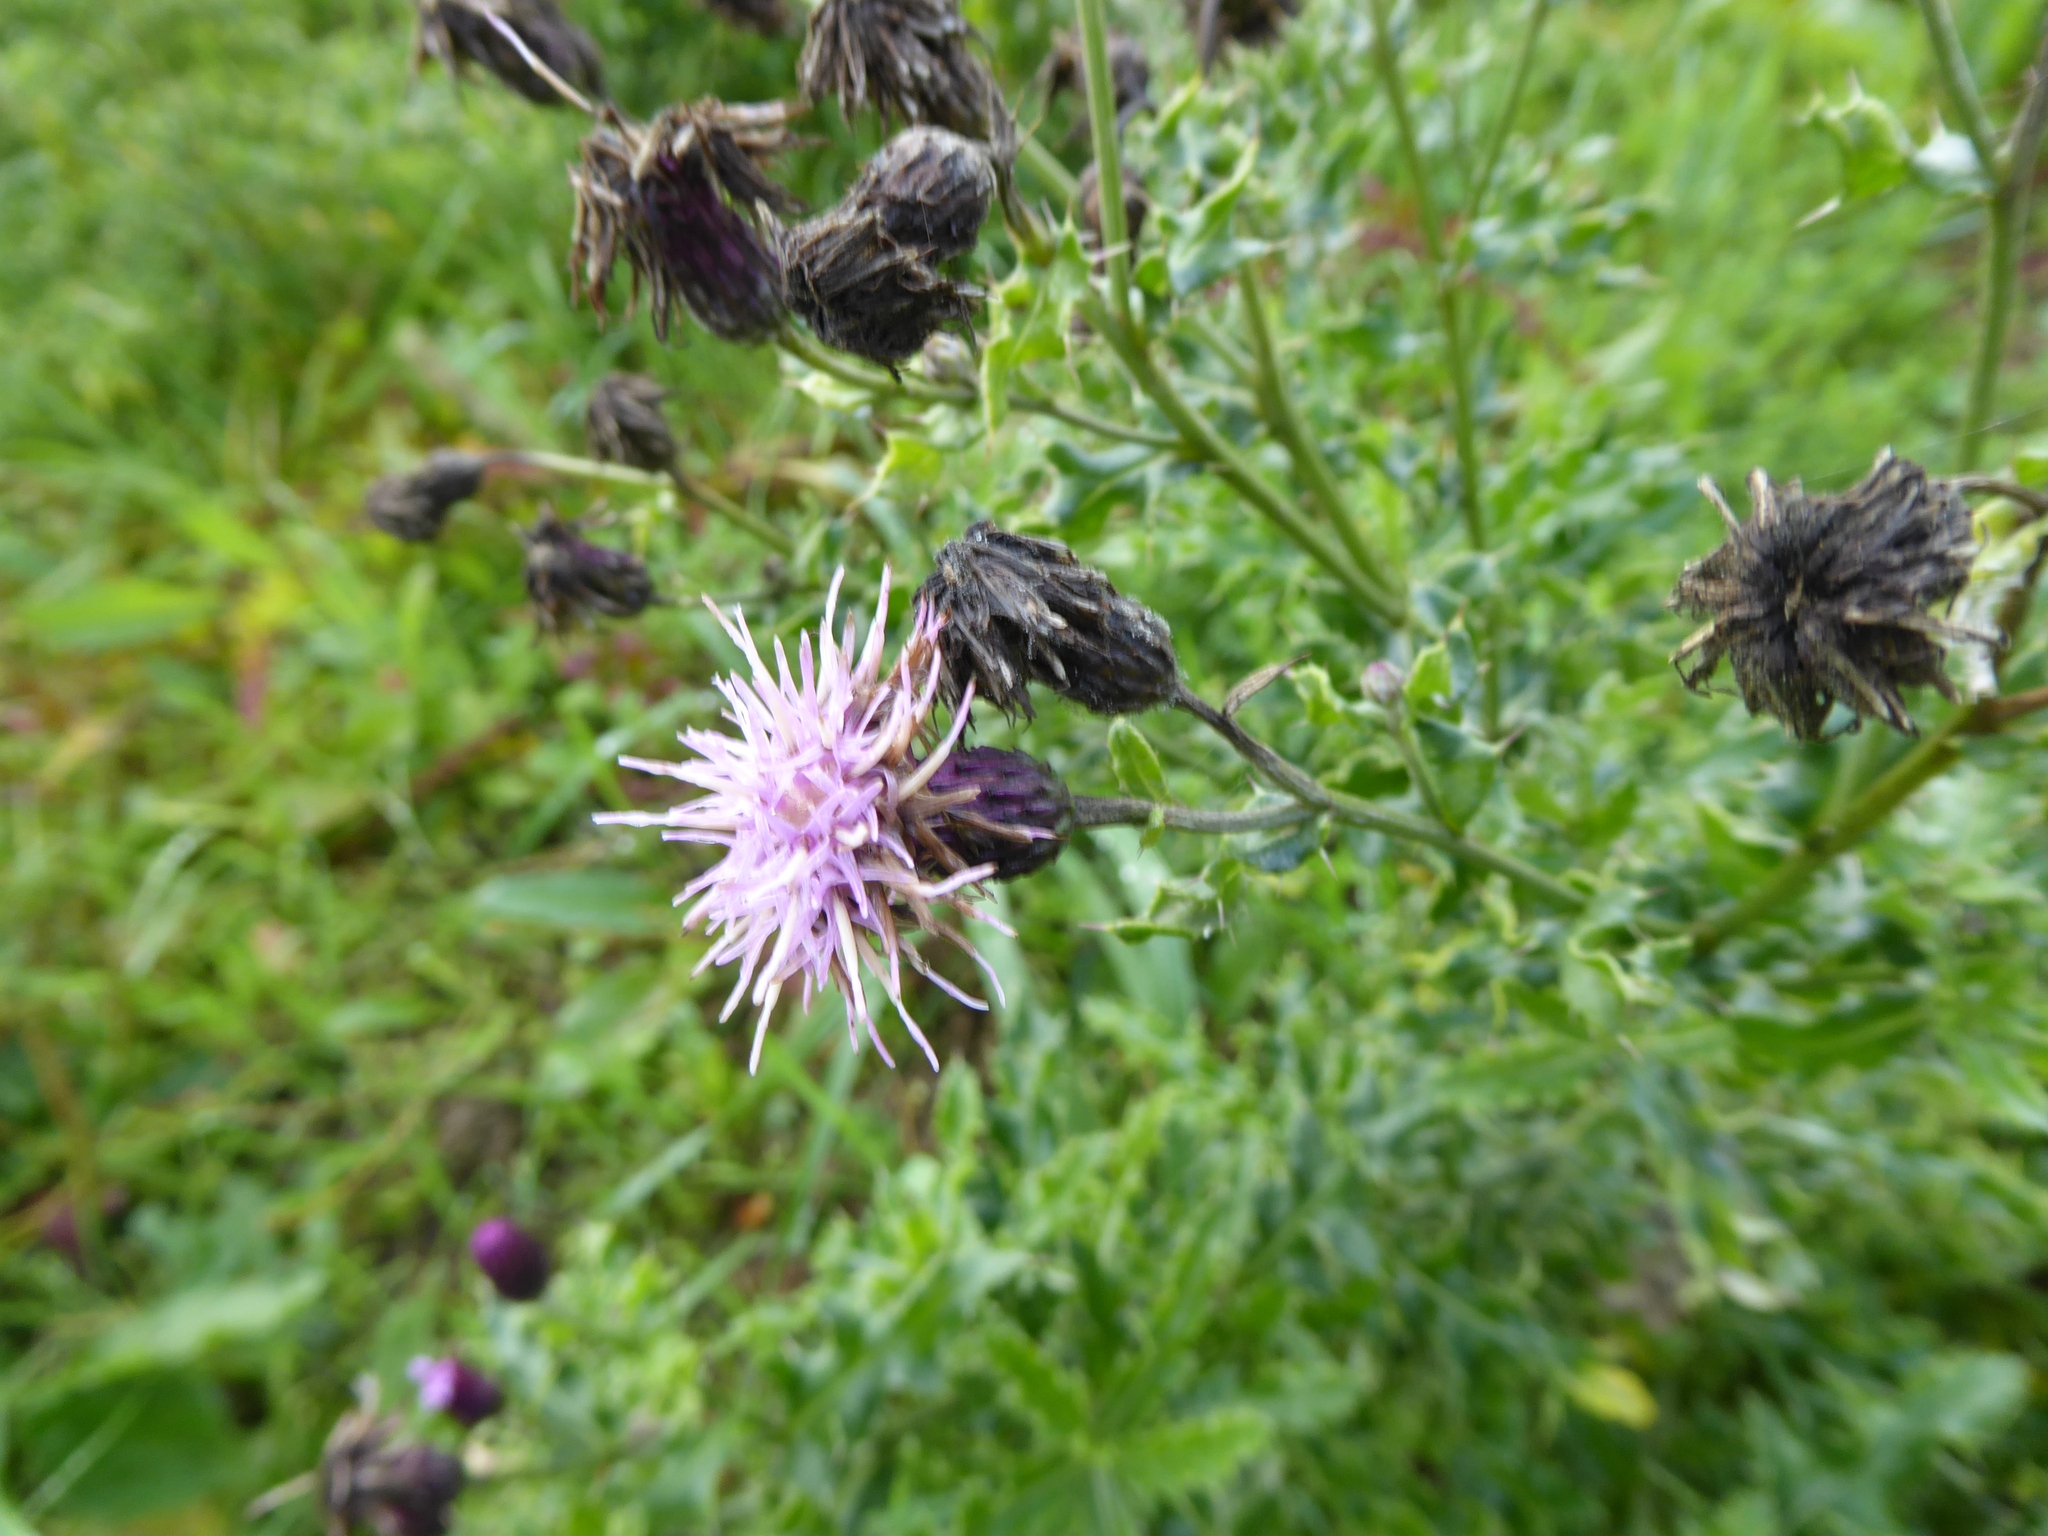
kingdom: Plantae
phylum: Tracheophyta
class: Magnoliopsida
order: Asterales
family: Asteraceae
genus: Cirsium
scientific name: Cirsium arvense
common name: Creeping thistle
